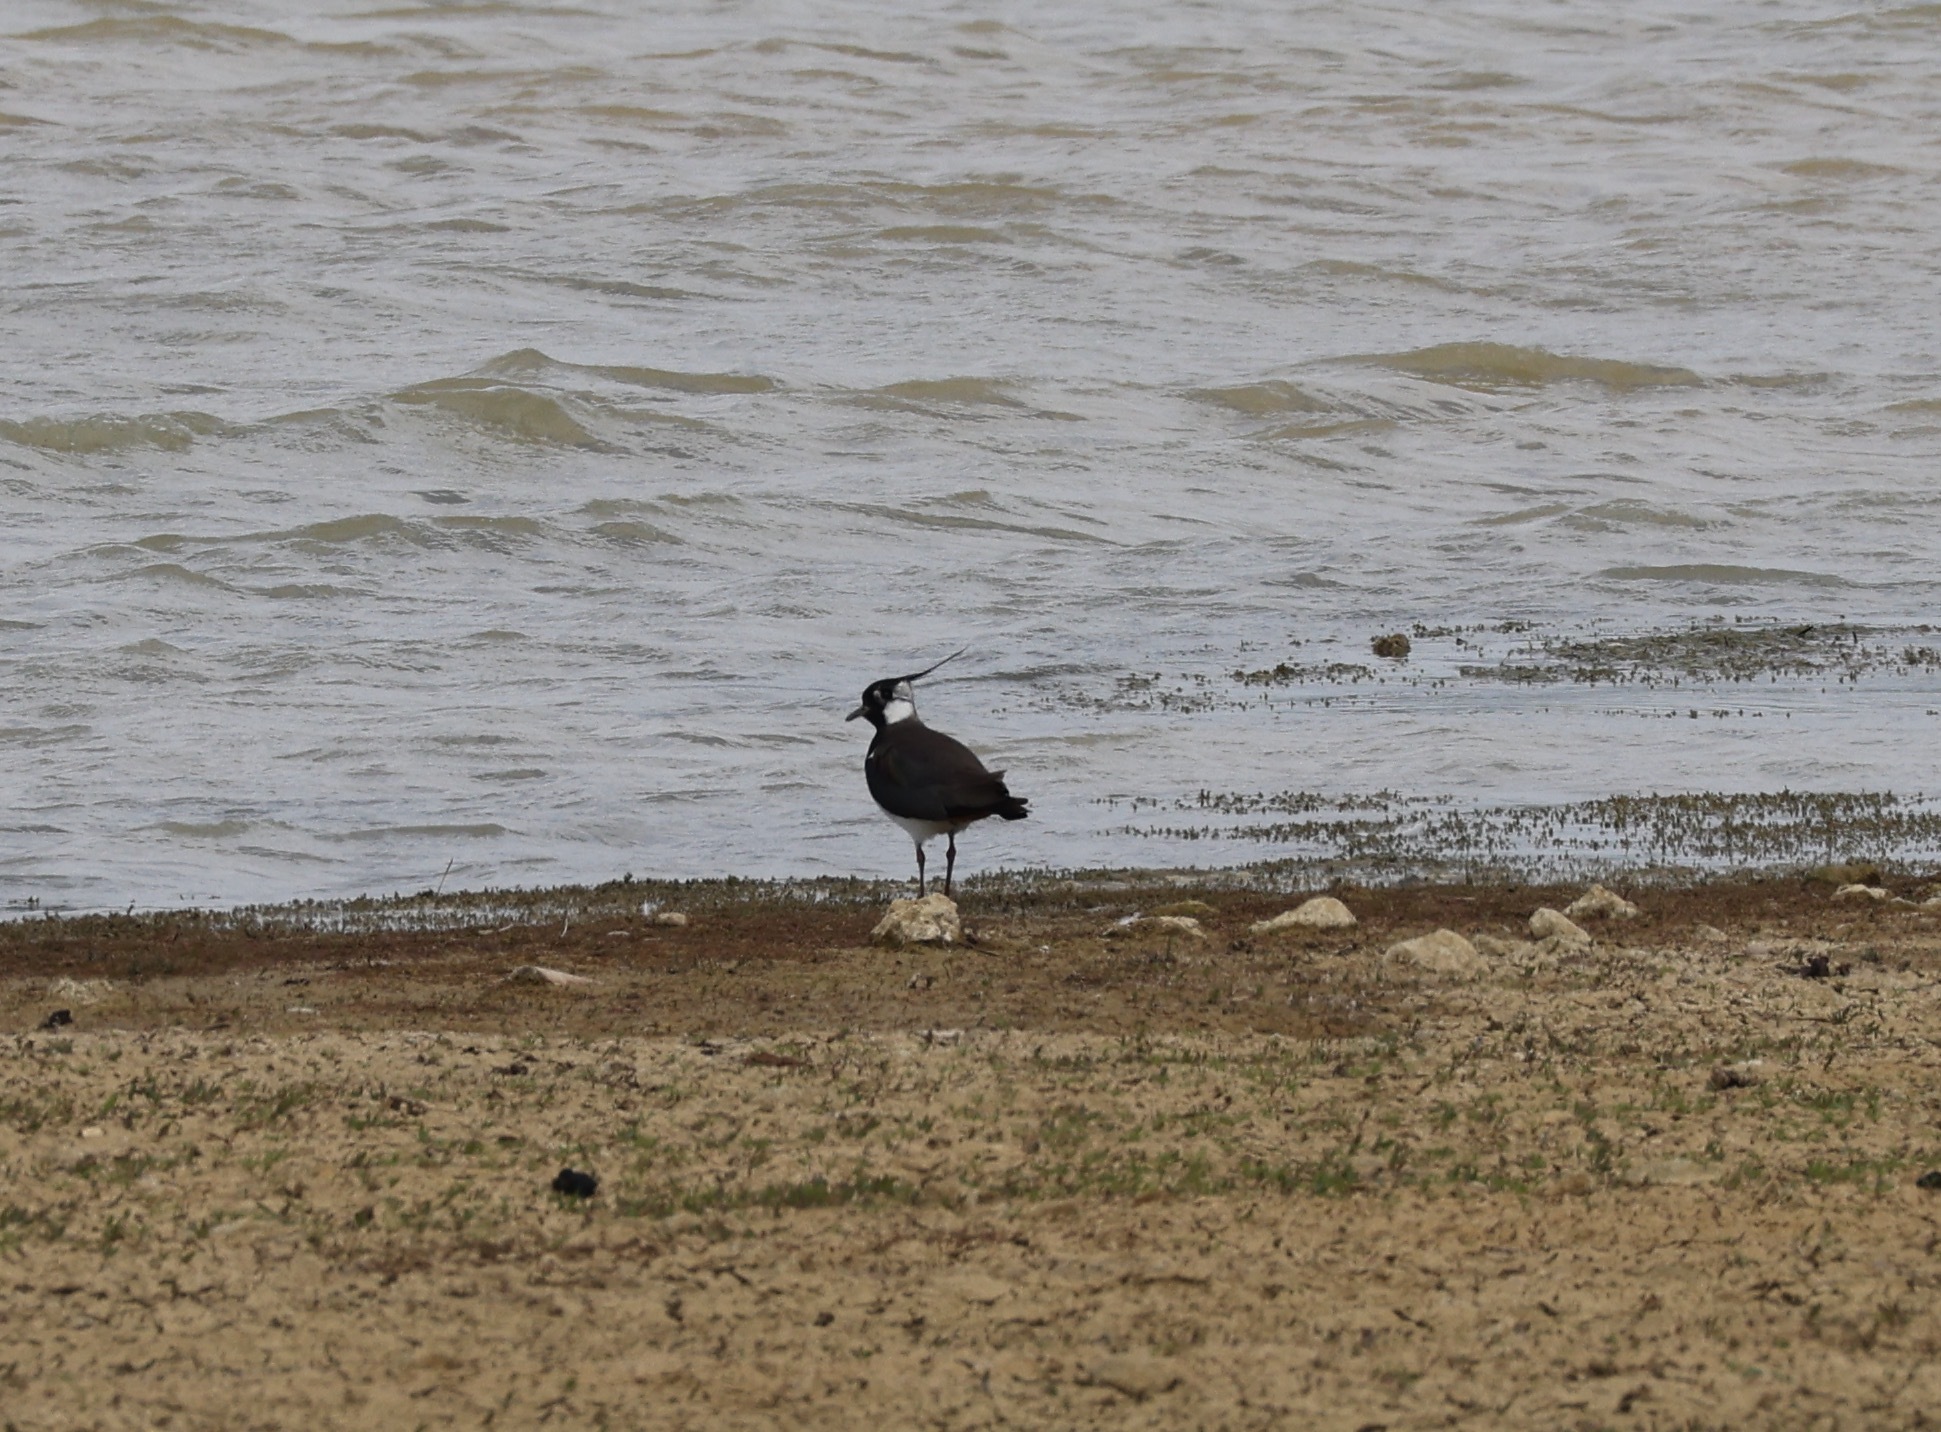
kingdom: Animalia
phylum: Chordata
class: Aves
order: Charadriiformes
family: Charadriidae
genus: Vanellus
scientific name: Vanellus vanellus
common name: Northern lapwing
